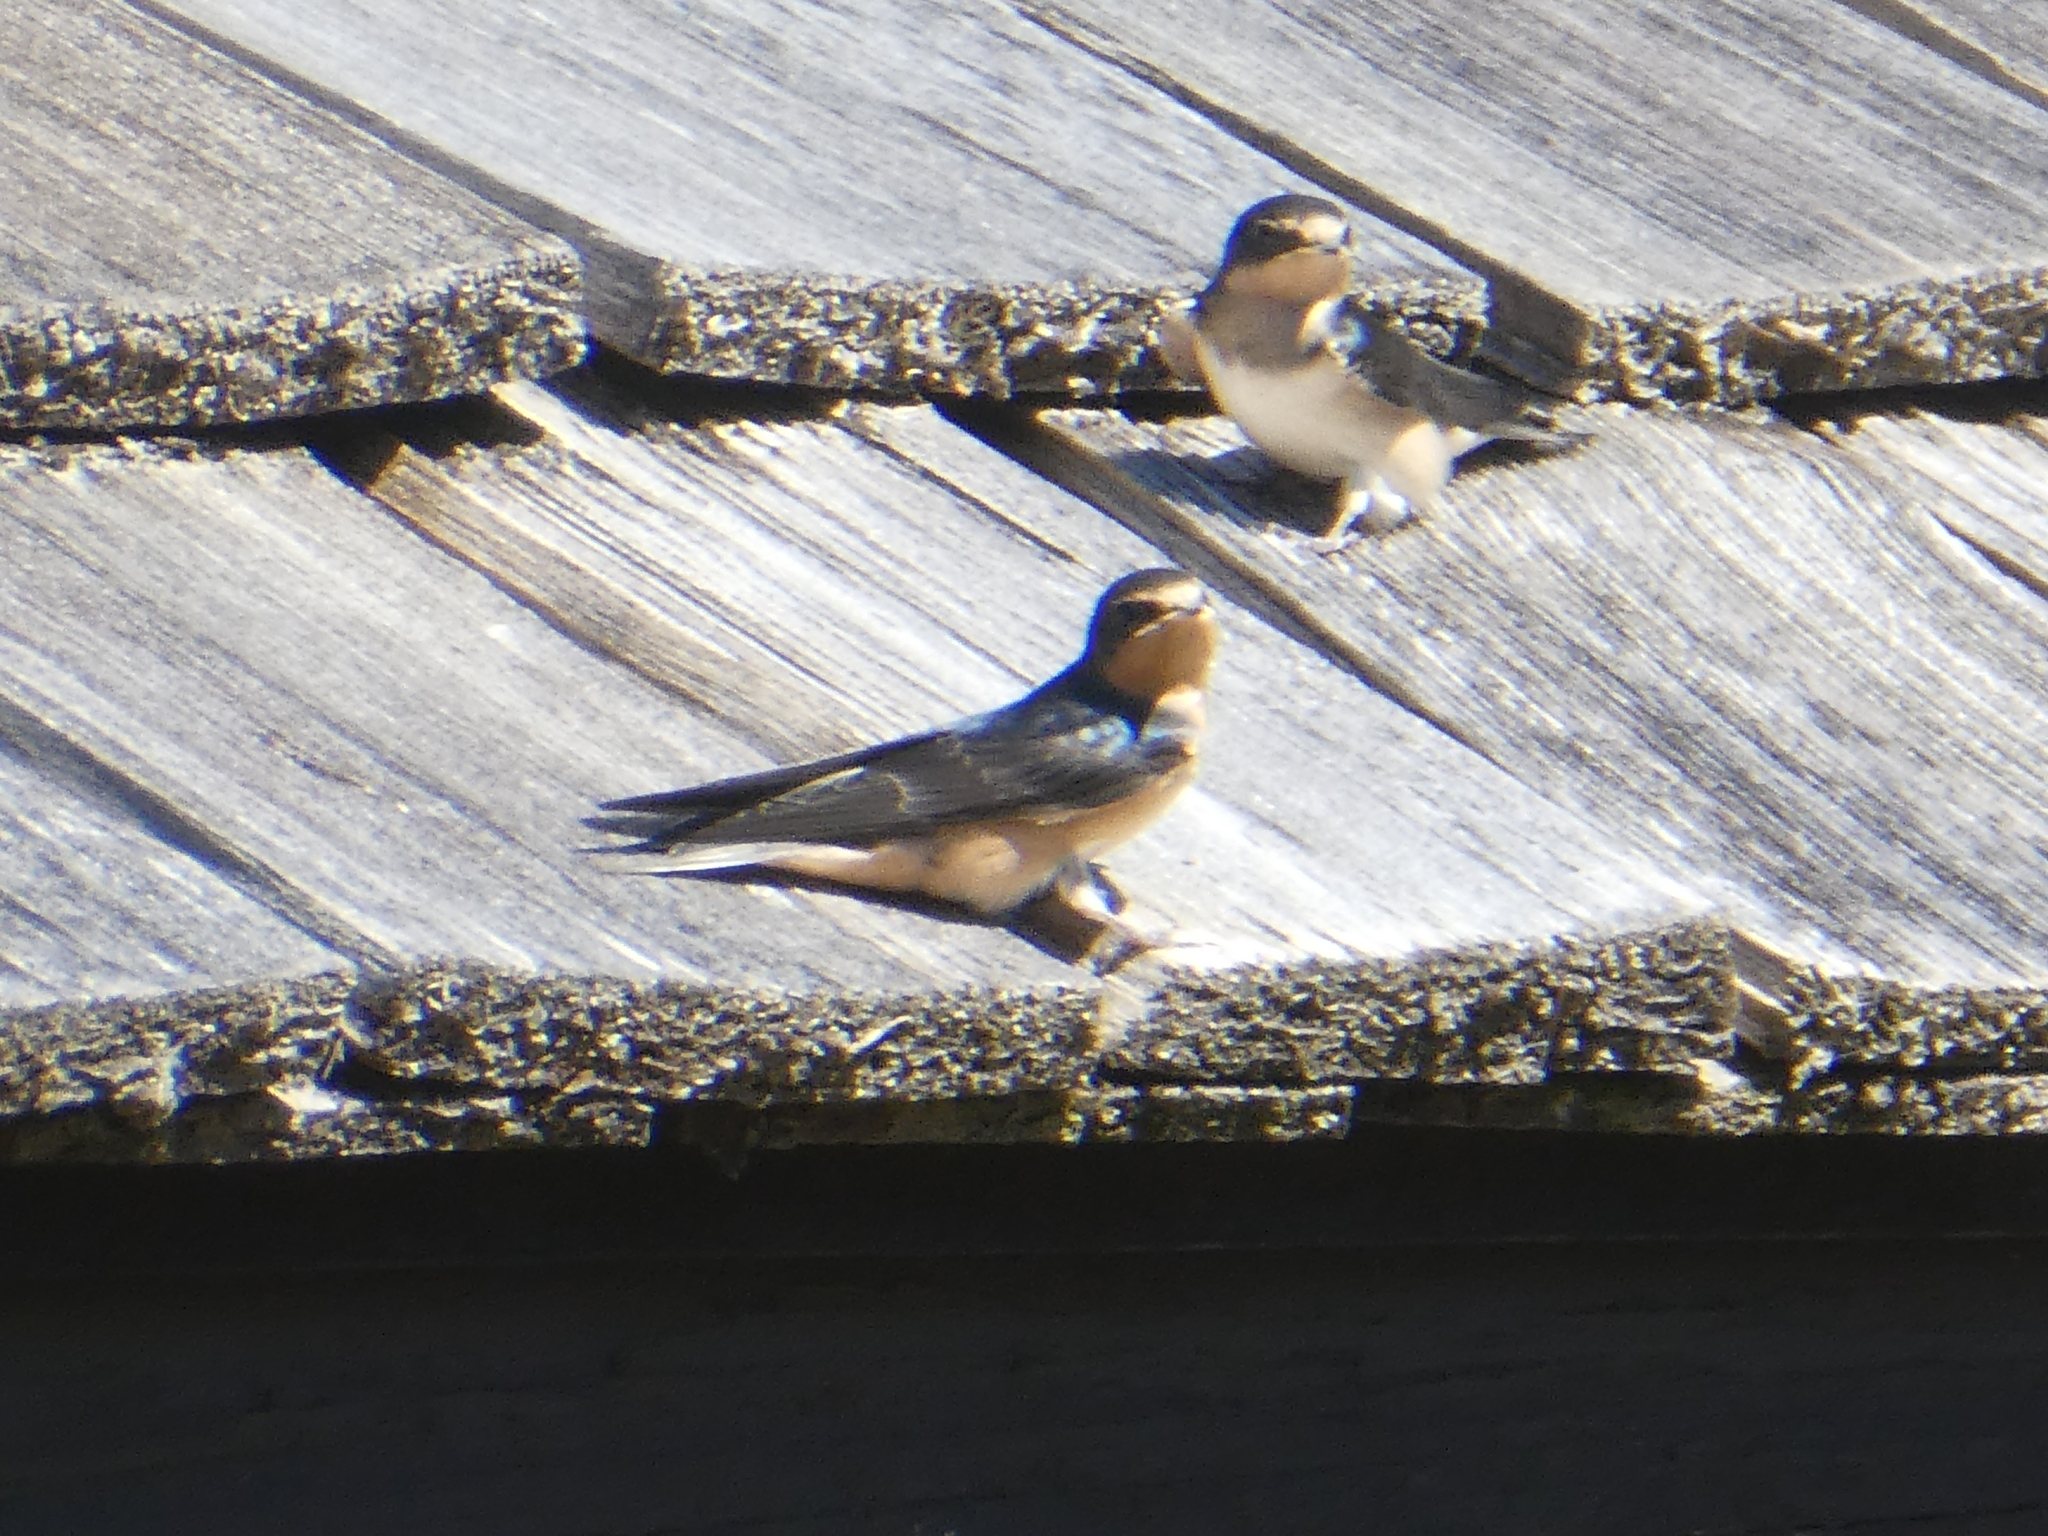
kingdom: Animalia
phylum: Chordata
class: Aves
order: Passeriformes
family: Hirundinidae
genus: Hirundo
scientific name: Hirundo rustica
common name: Barn swallow
